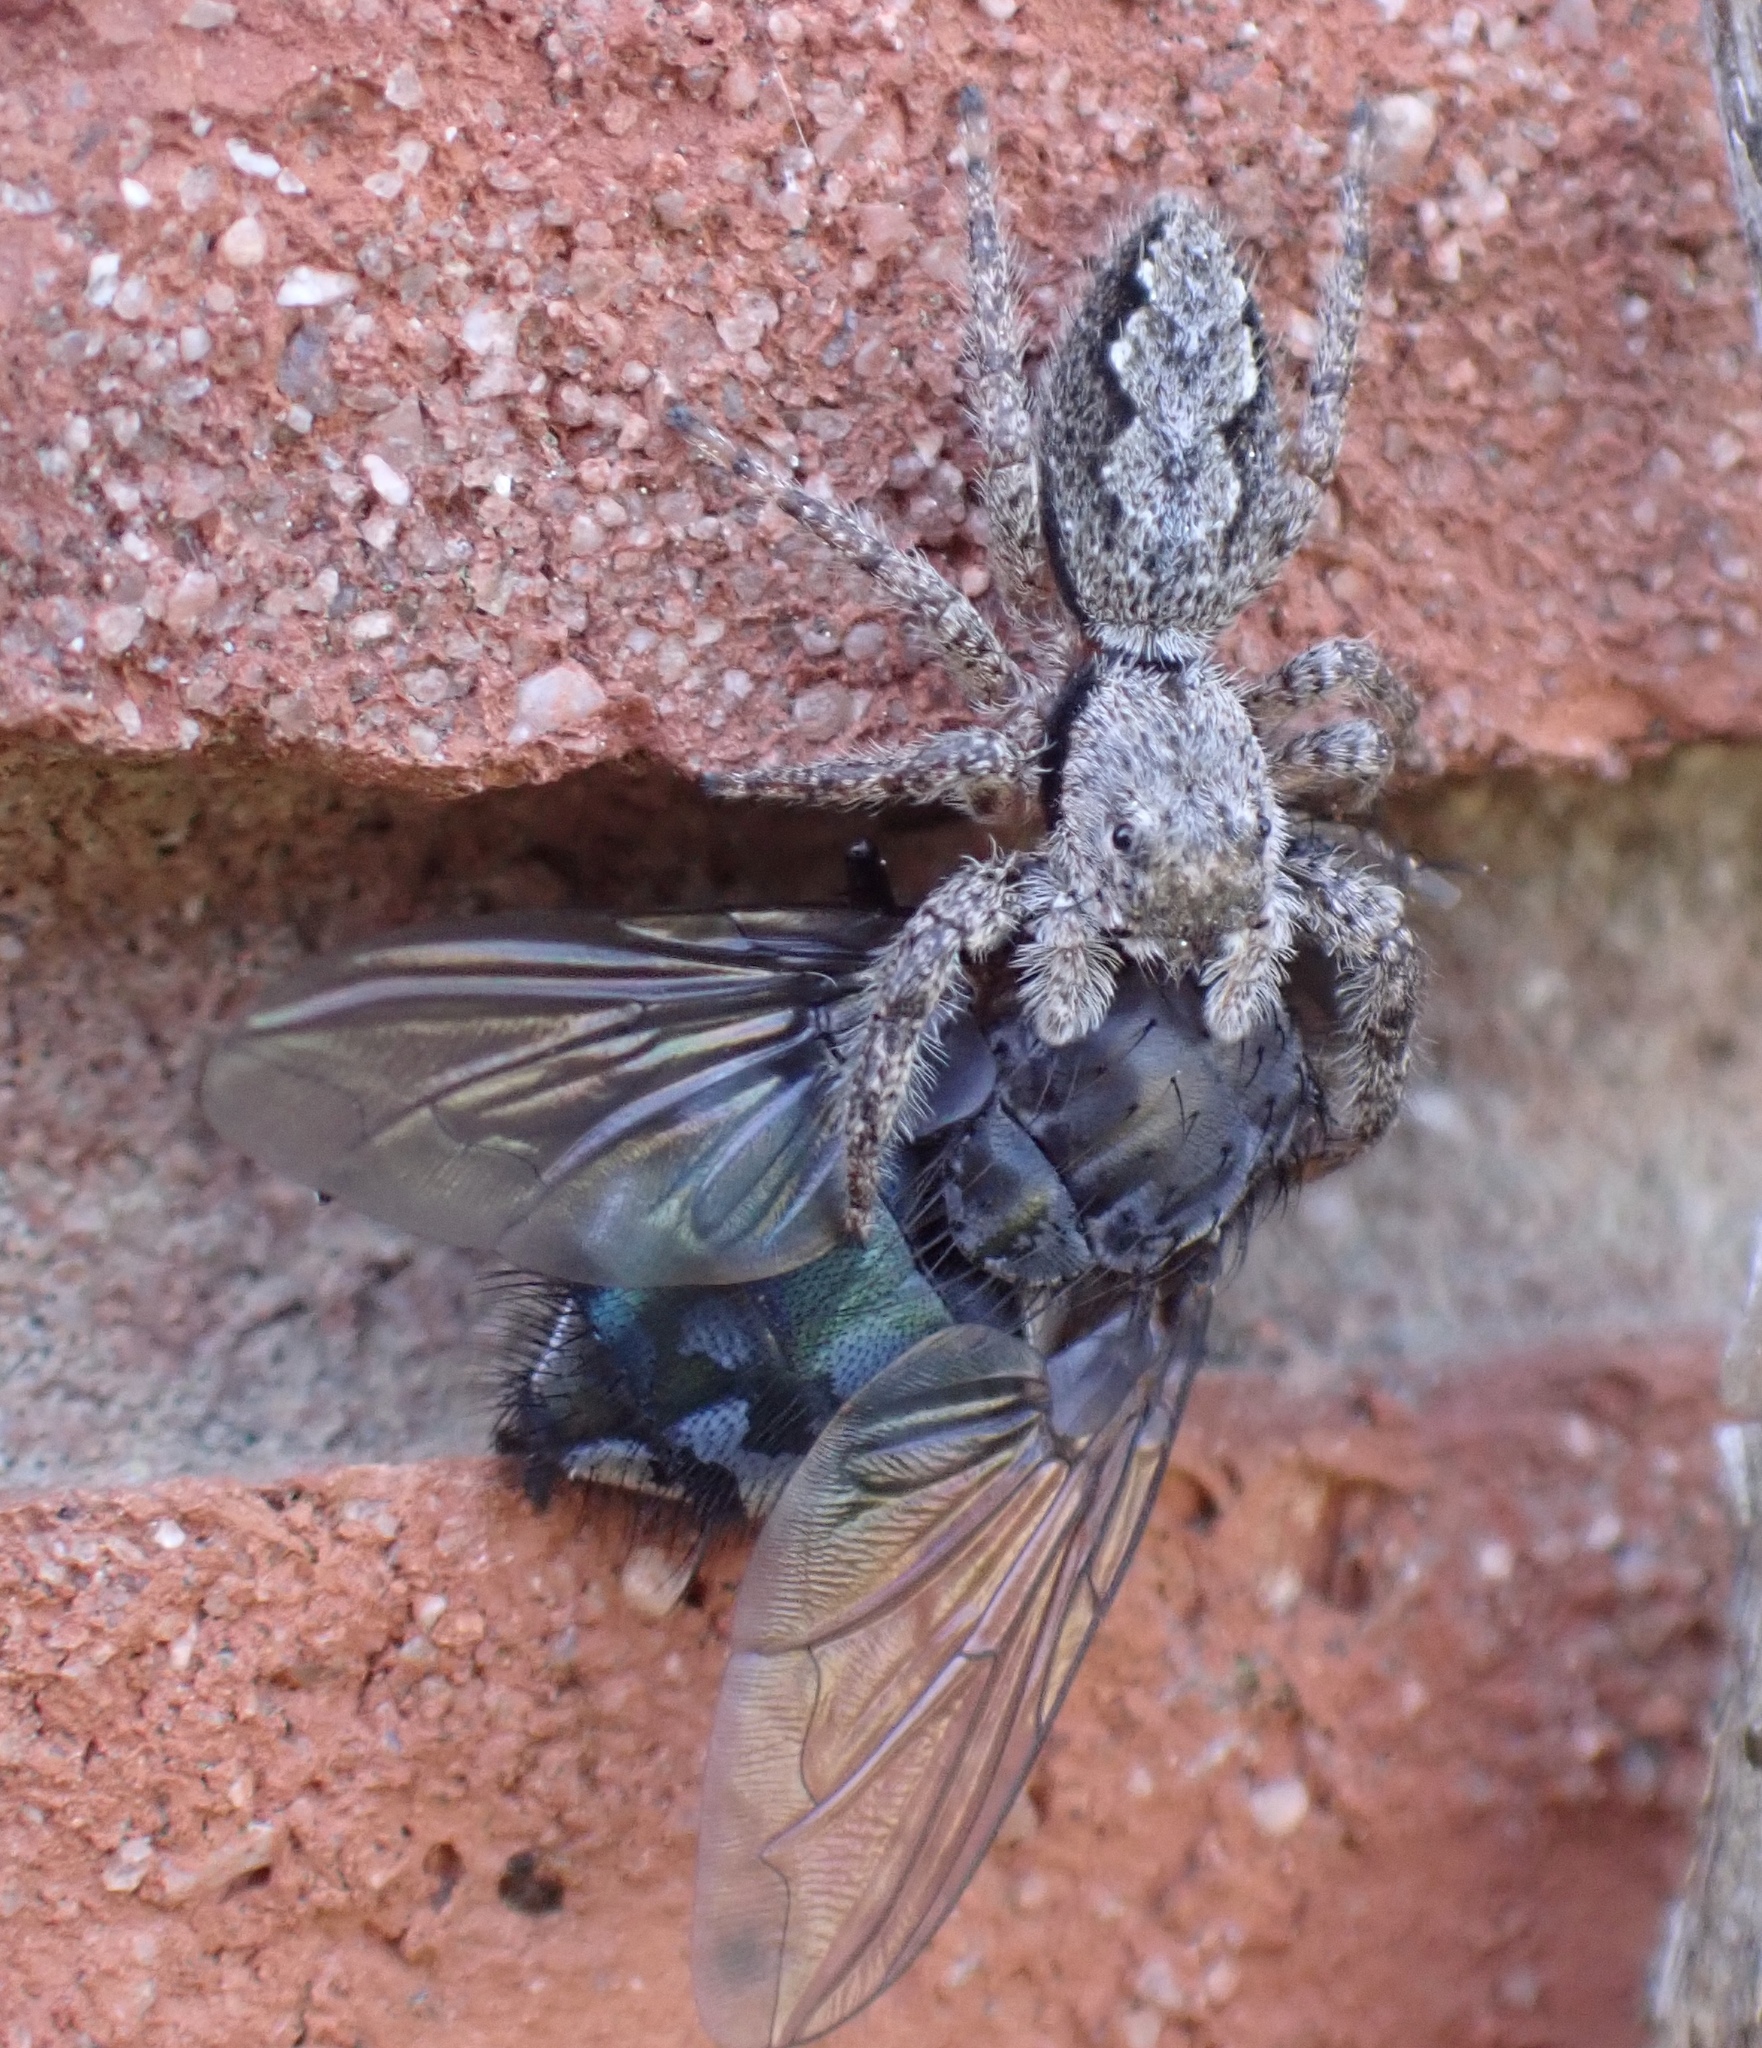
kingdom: Animalia
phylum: Arthropoda
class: Arachnida
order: Araneae
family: Salticidae
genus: Platycryptus
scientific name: Platycryptus undatus
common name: Tan jumping spider
